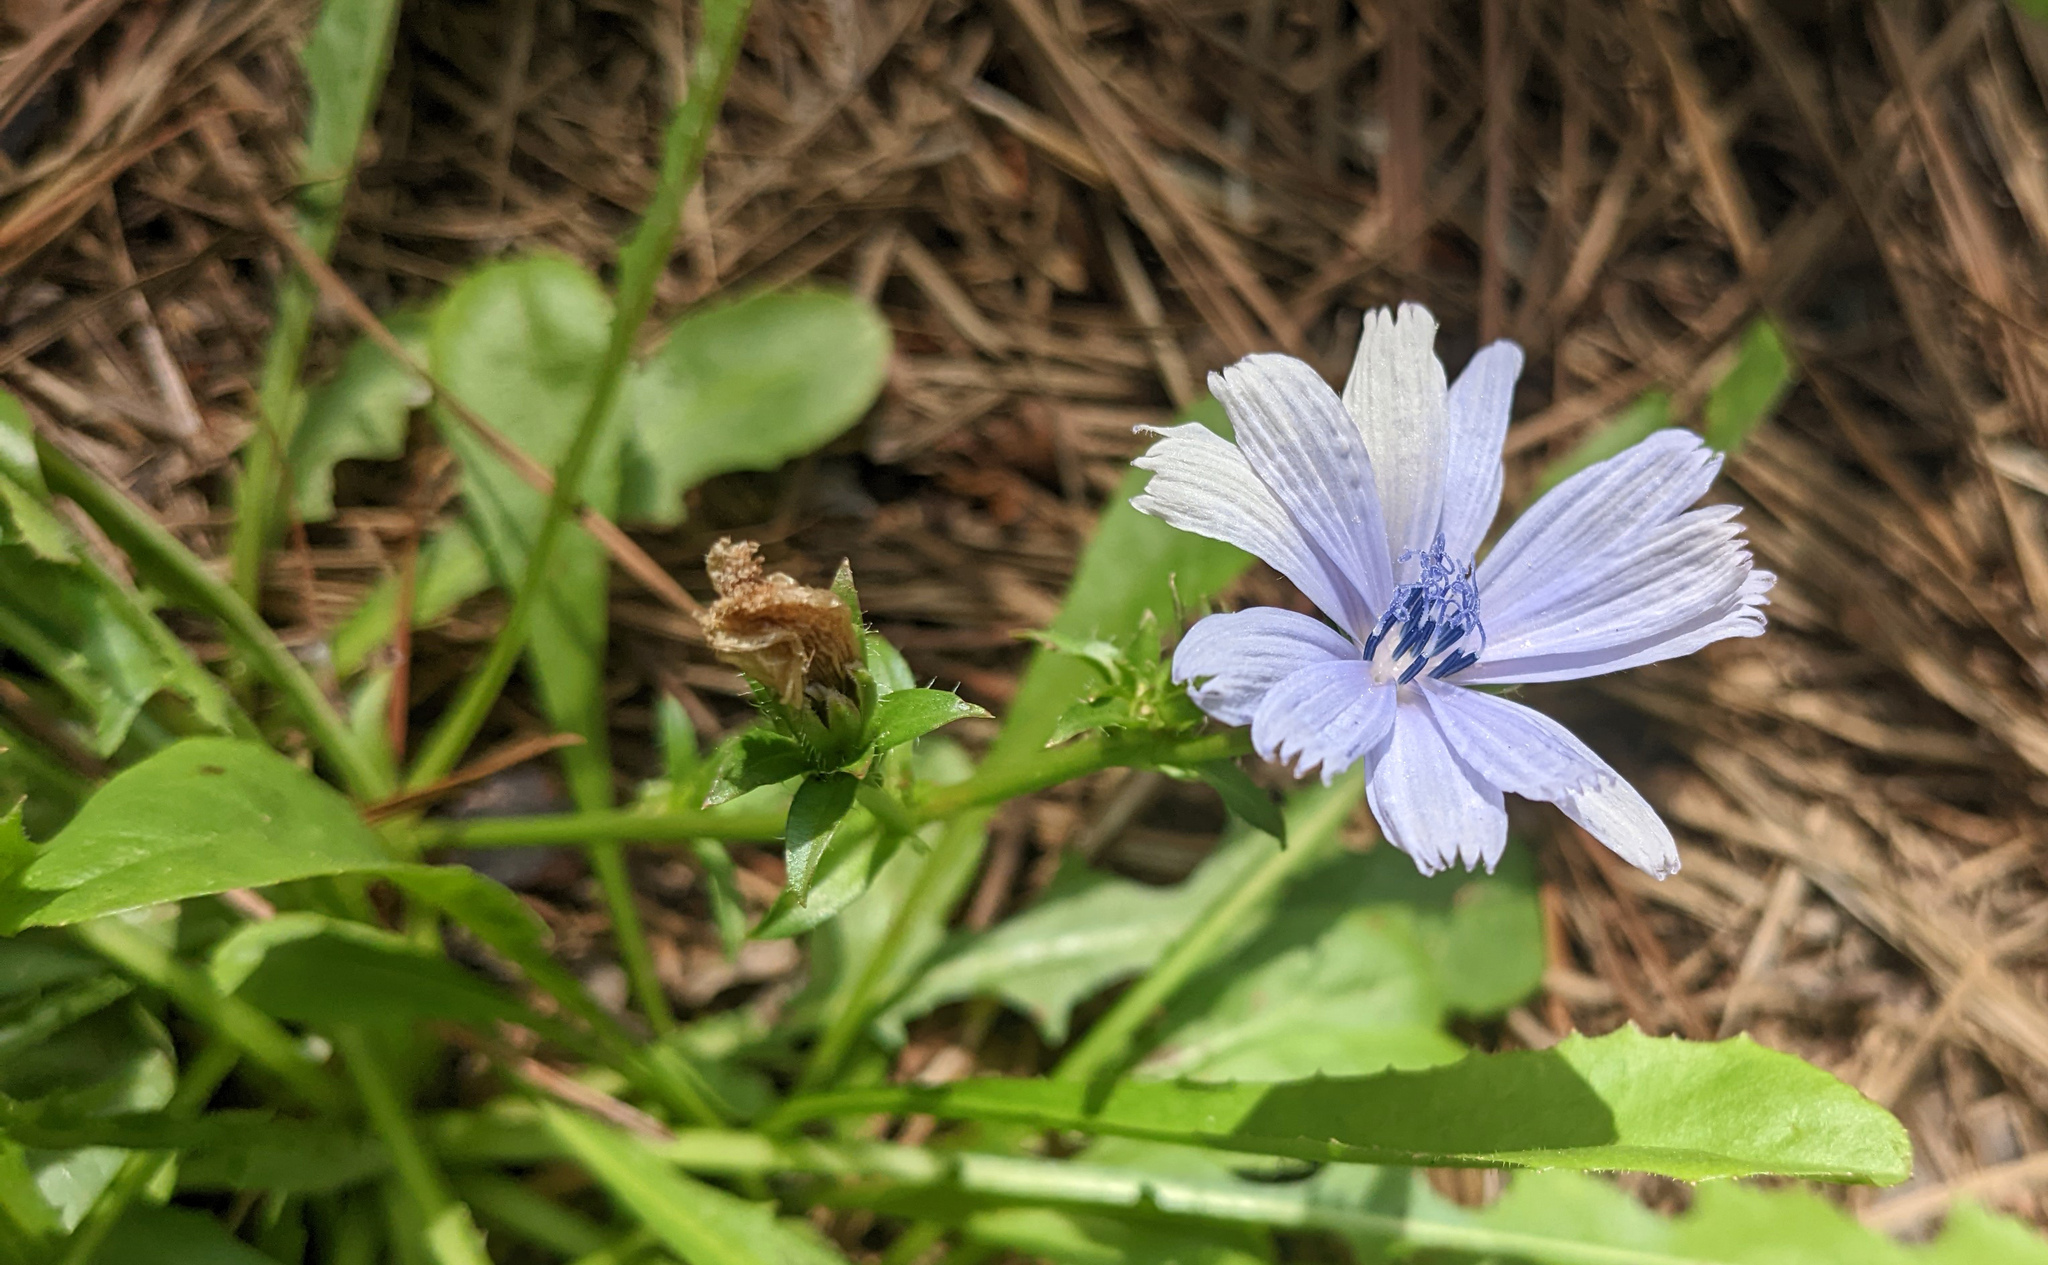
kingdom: Plantae
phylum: Tracheophyta
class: Magnoliopsida
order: Asterales
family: Asteraceae
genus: Cichorium
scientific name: Cichorium intybus
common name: Chicory
